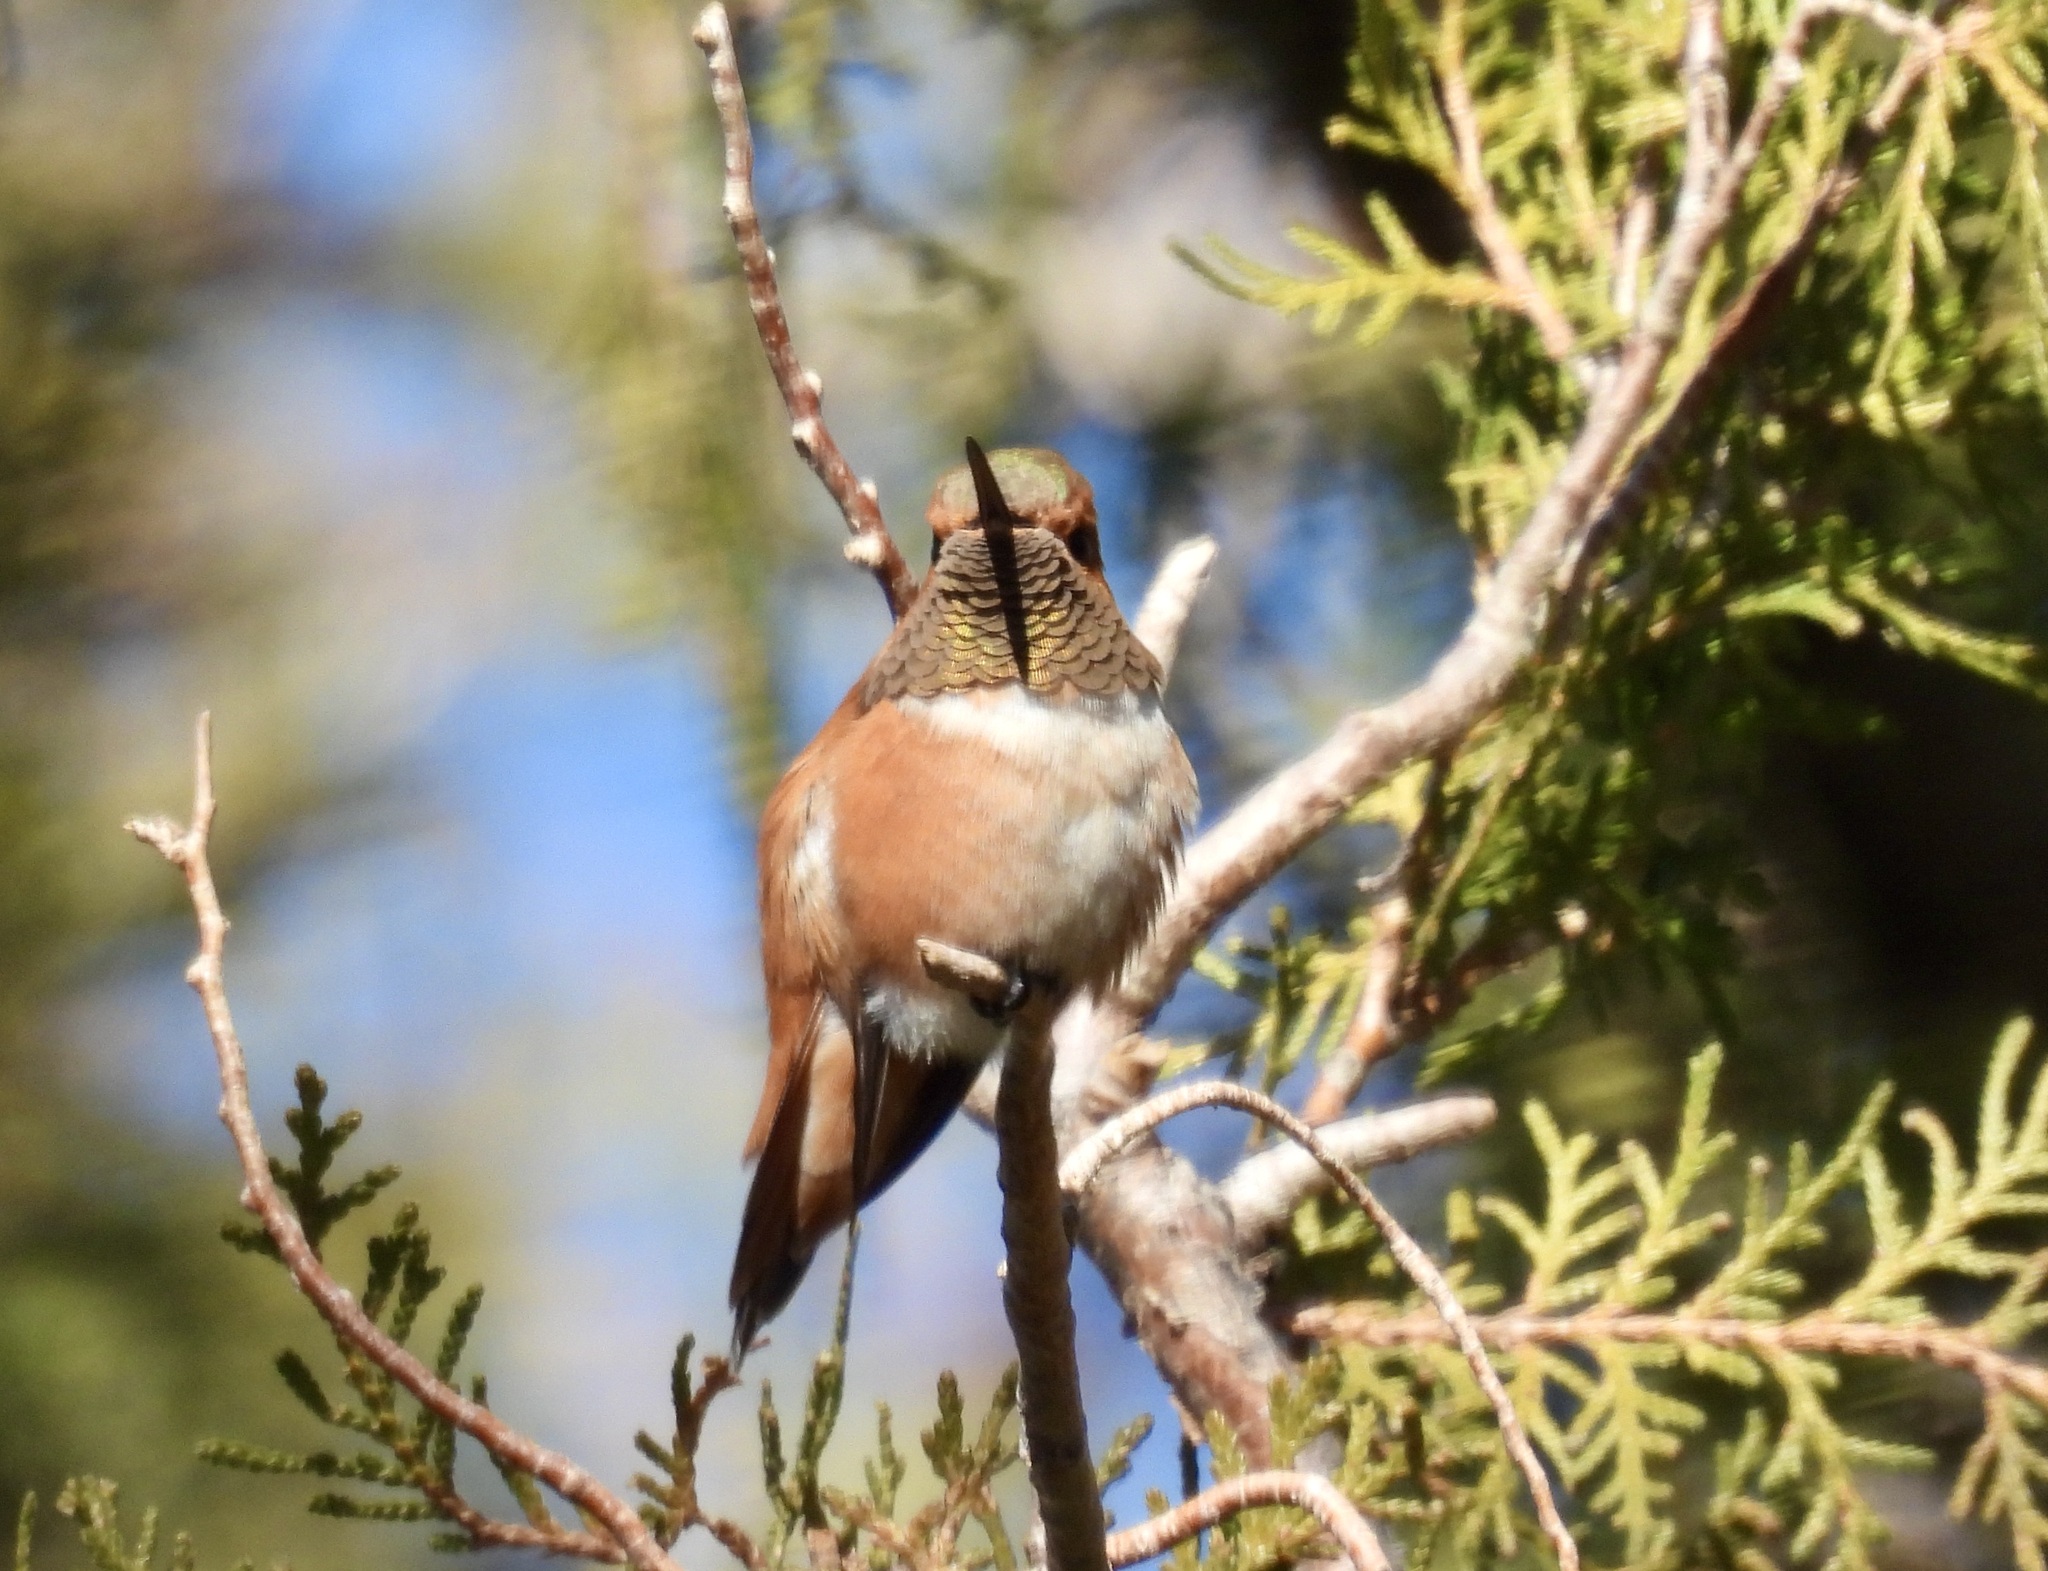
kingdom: Animalia
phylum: Chordata
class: Aves
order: Apodiformes
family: Trochilidae
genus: Selasphorus
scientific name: Selasphorus rufus
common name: Rufous hummingbird
